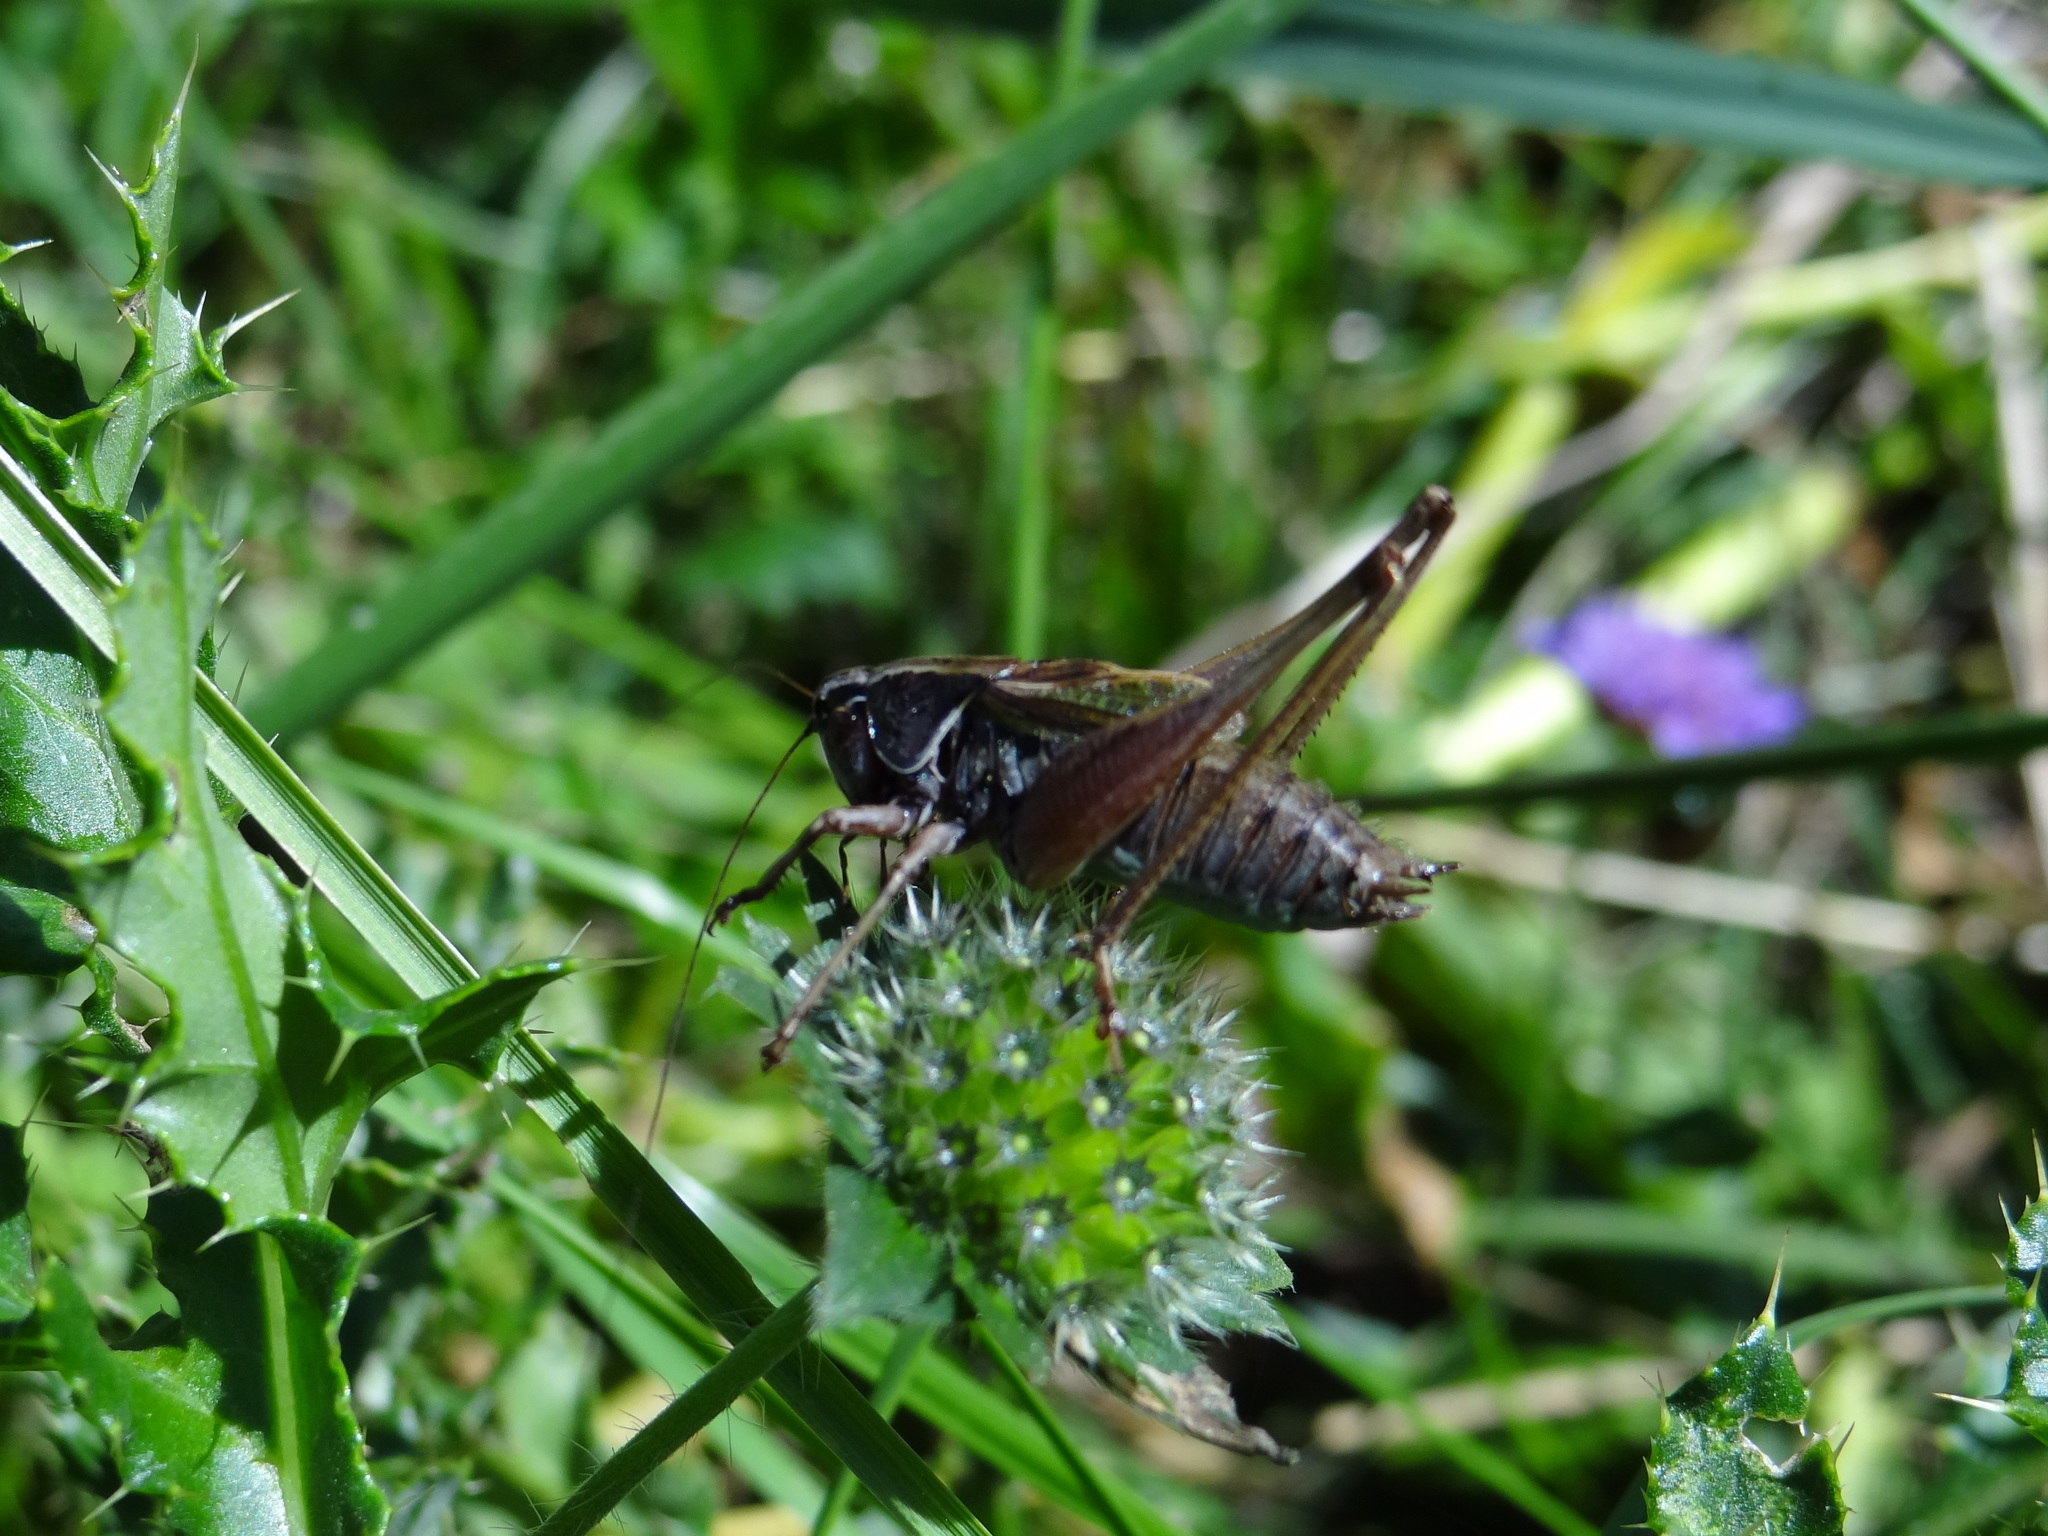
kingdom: Animalia
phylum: Arthropoda
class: Insecta
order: Orthoptera
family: Tettigoniidae
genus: Metrioptera
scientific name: Metrioptera saussuriana
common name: Purple meadow bush-cricket
